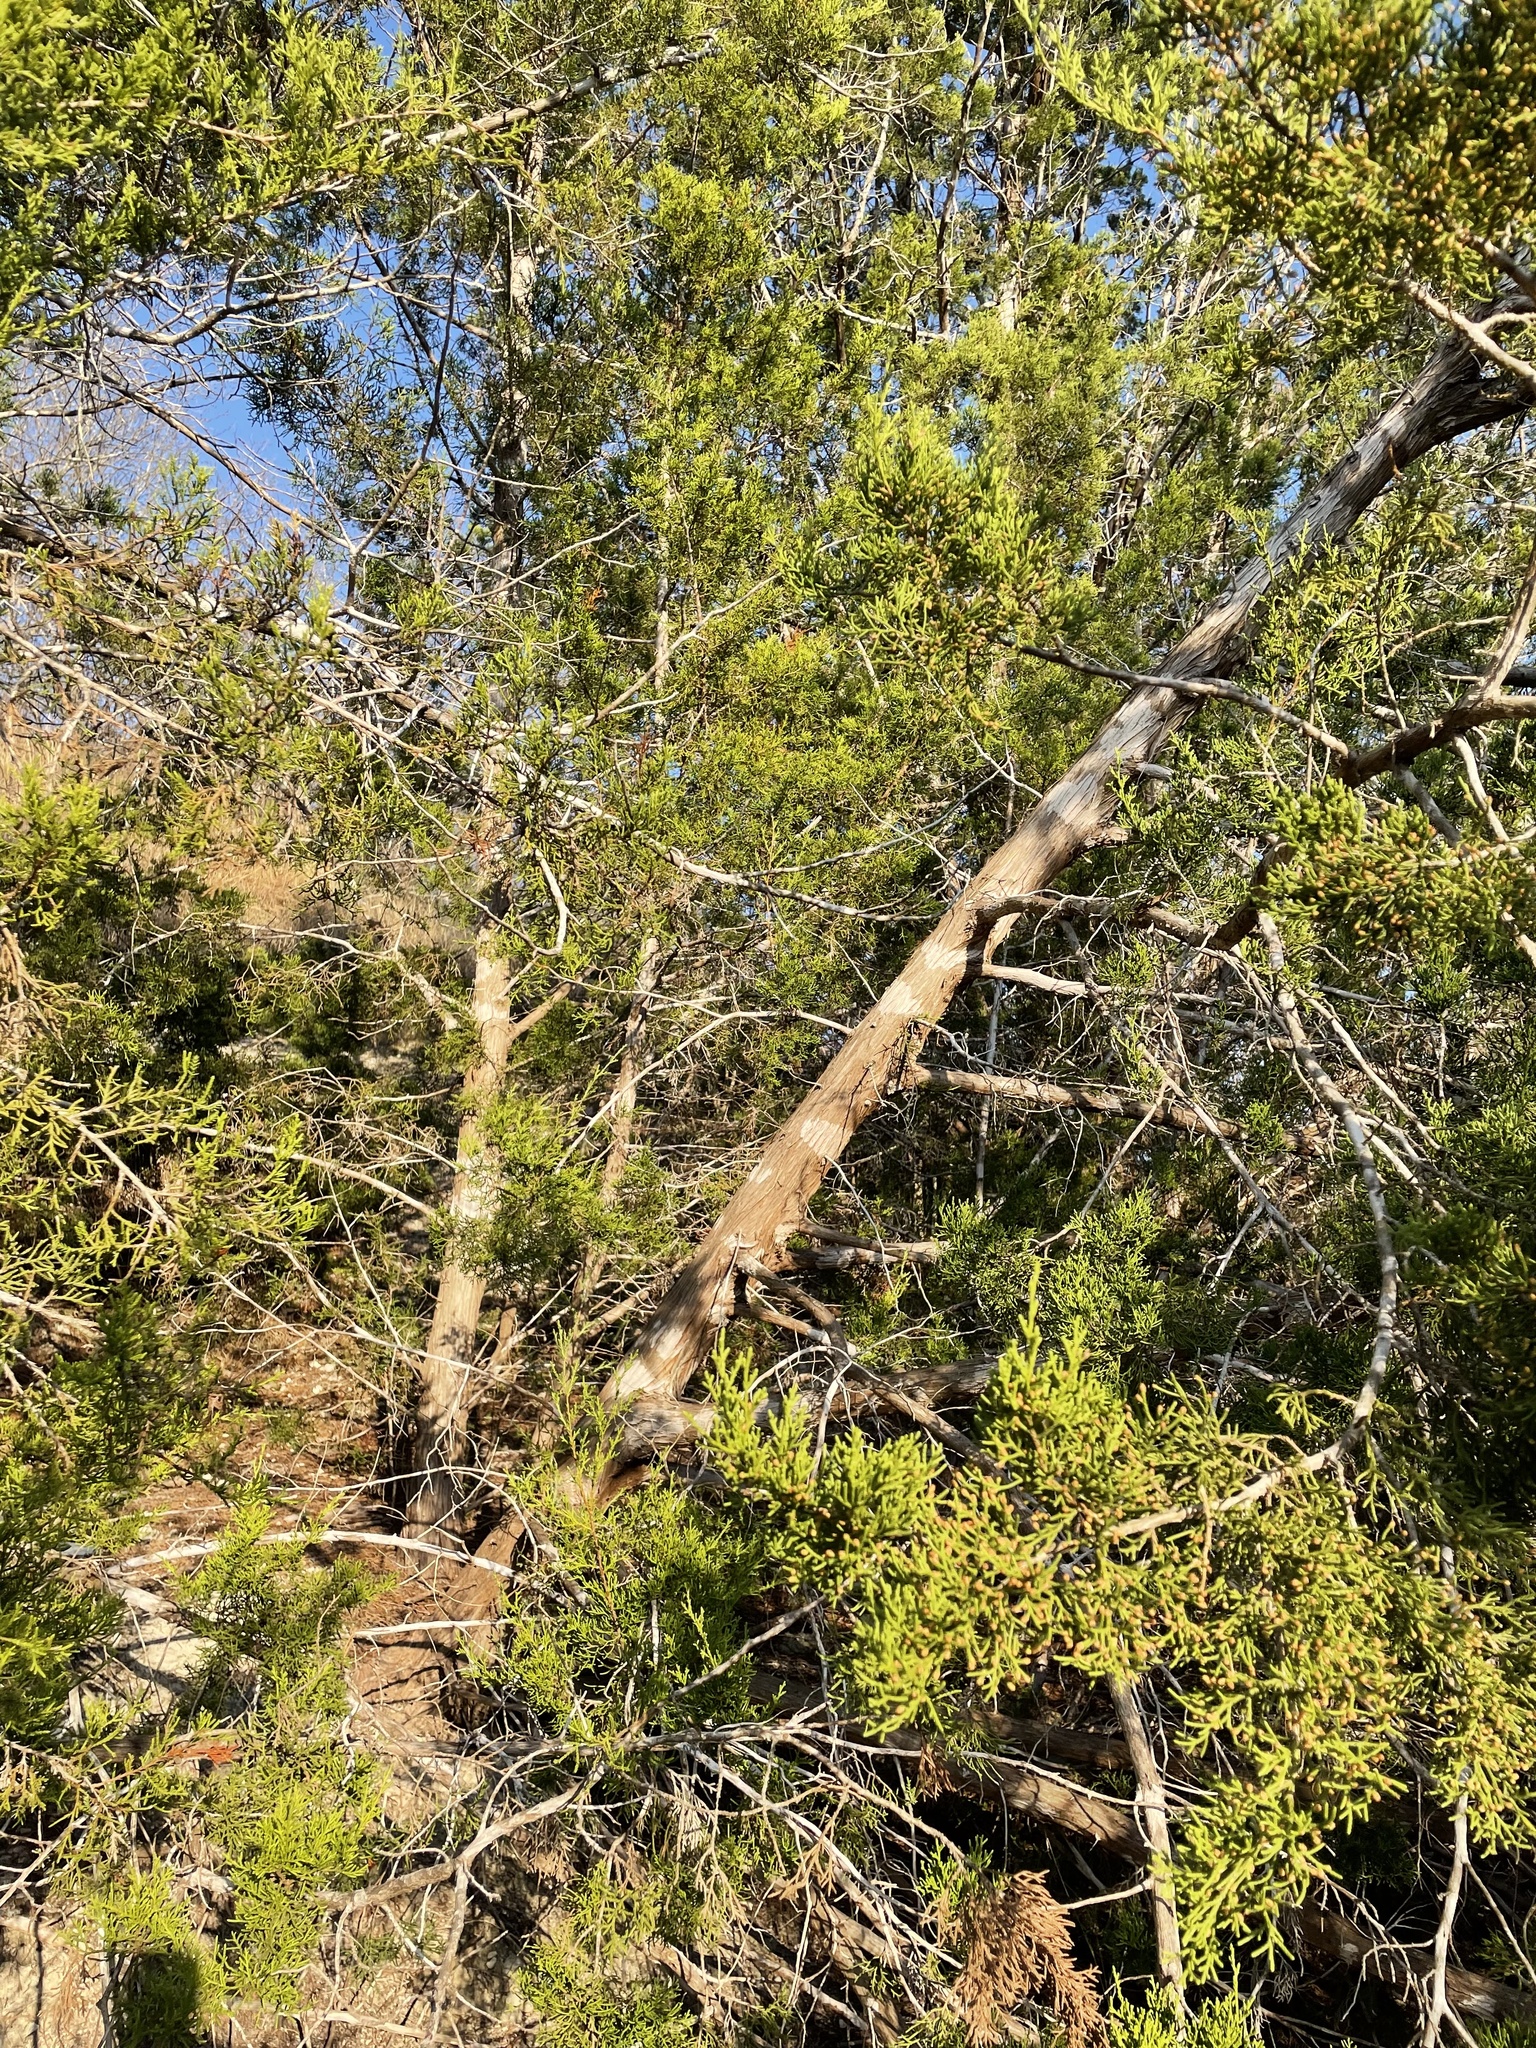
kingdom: Plantae
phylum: Tracheophyta
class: Pinopsida
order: Pinales
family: Cupressaceae
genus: Juniperus
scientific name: Juniperus ashei
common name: Mexican juniper
